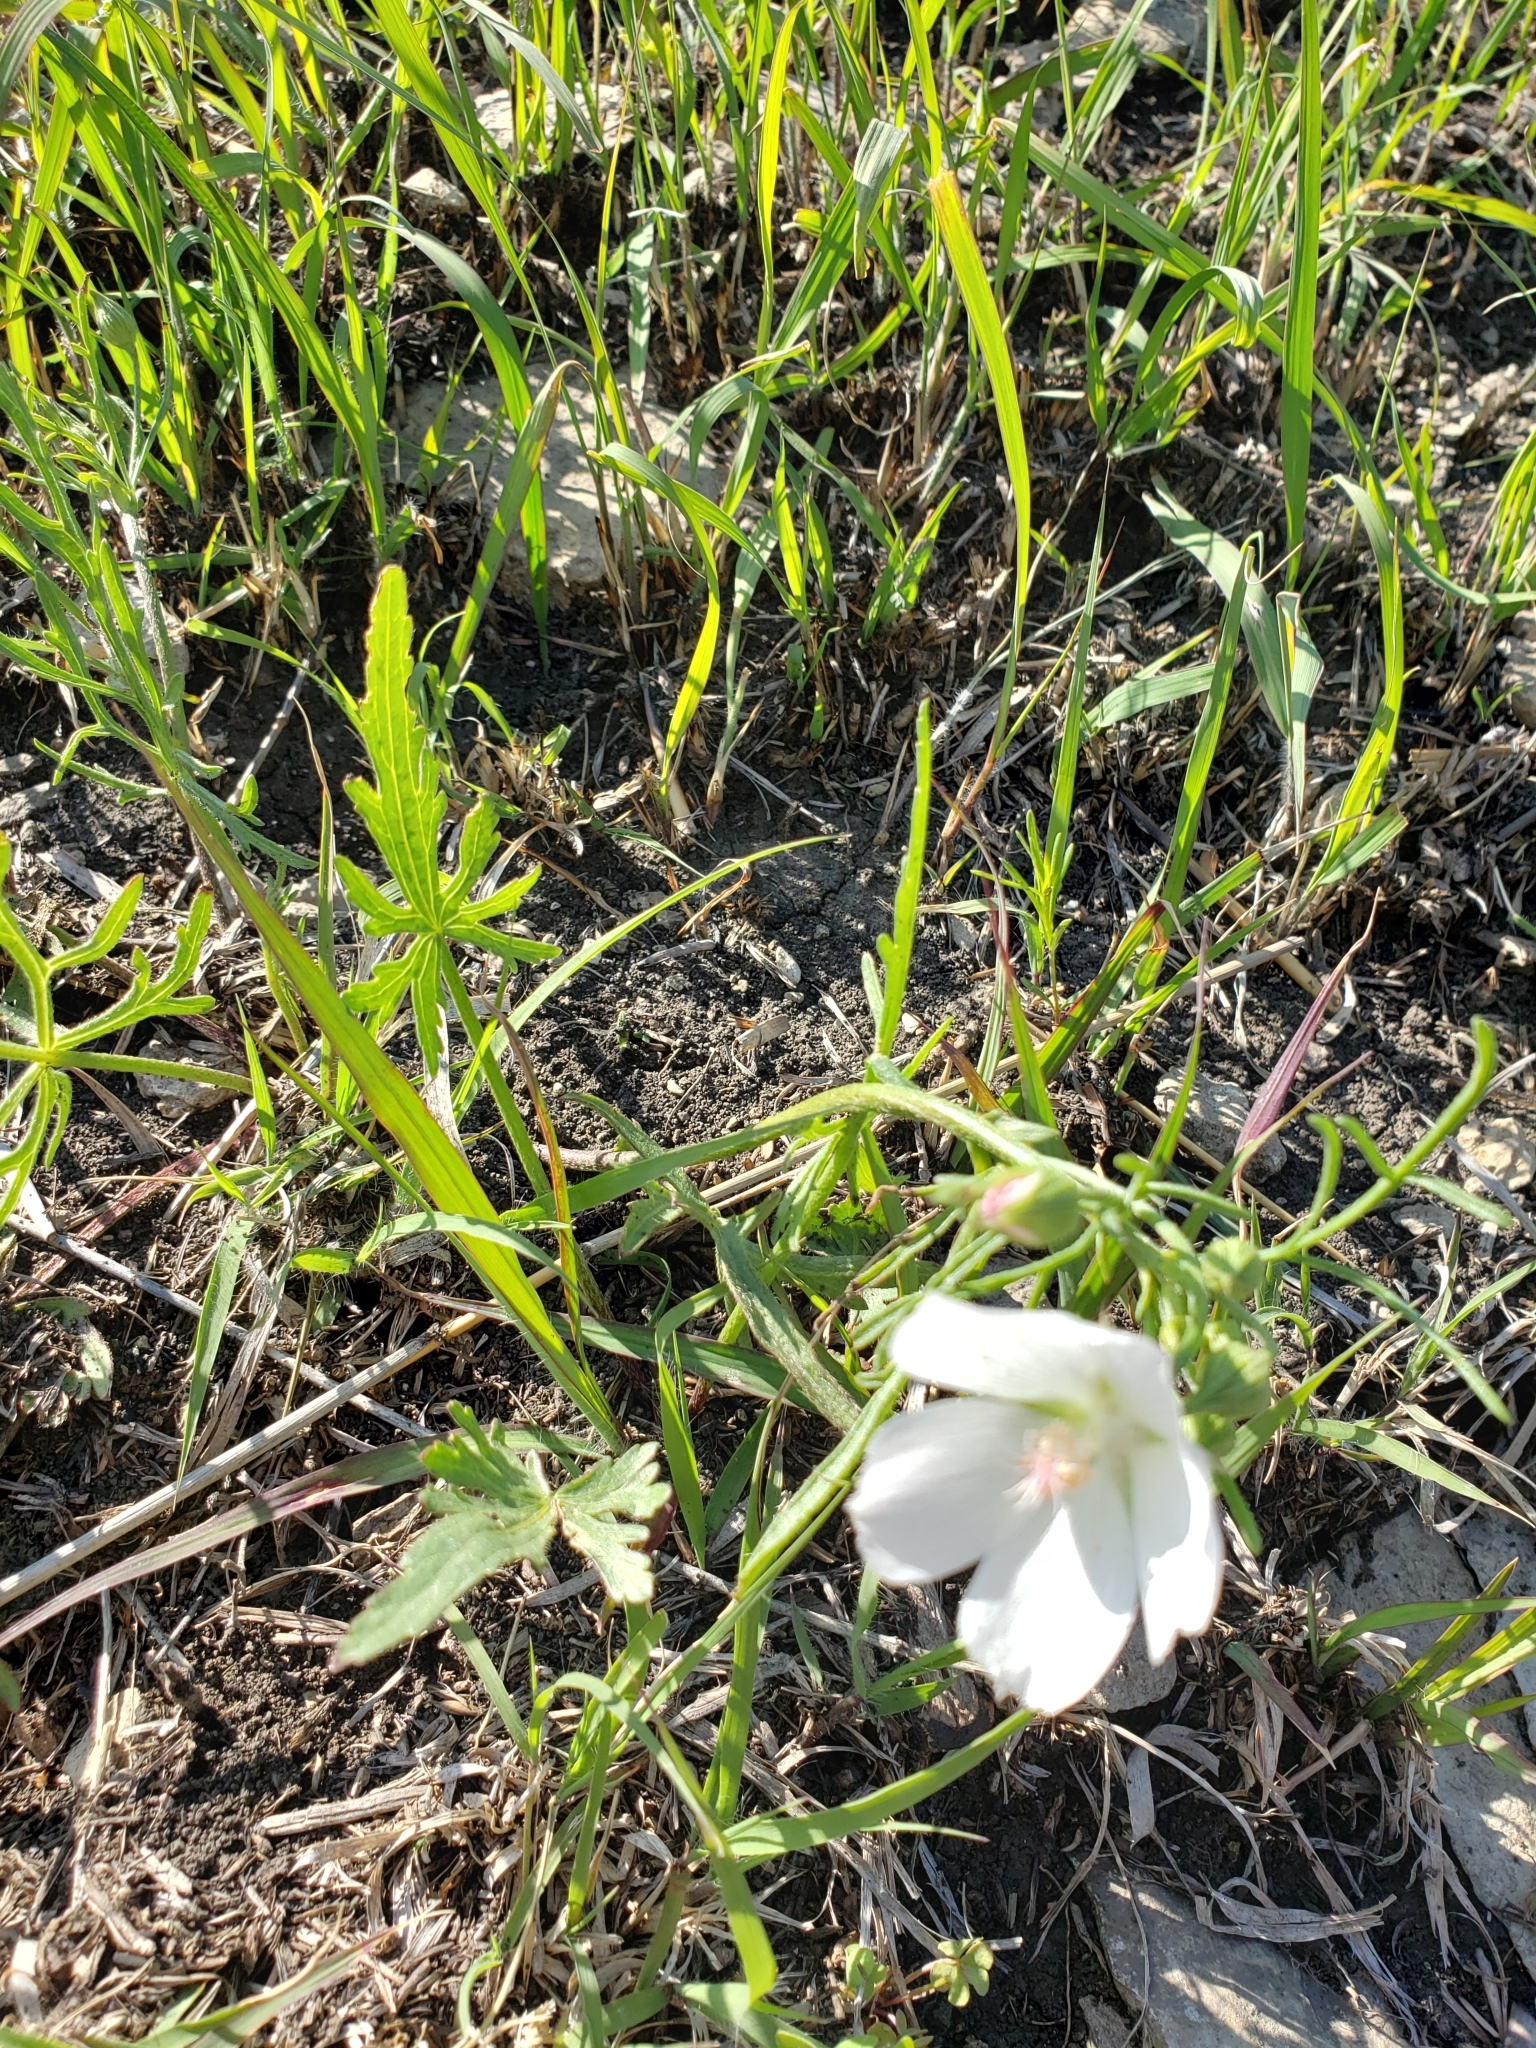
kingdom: Plantae
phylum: Tracheophyta
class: Magnoliopsida
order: Malvales
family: Malvaceae
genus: Callirhoe
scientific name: Callirhoe alcaeoides
